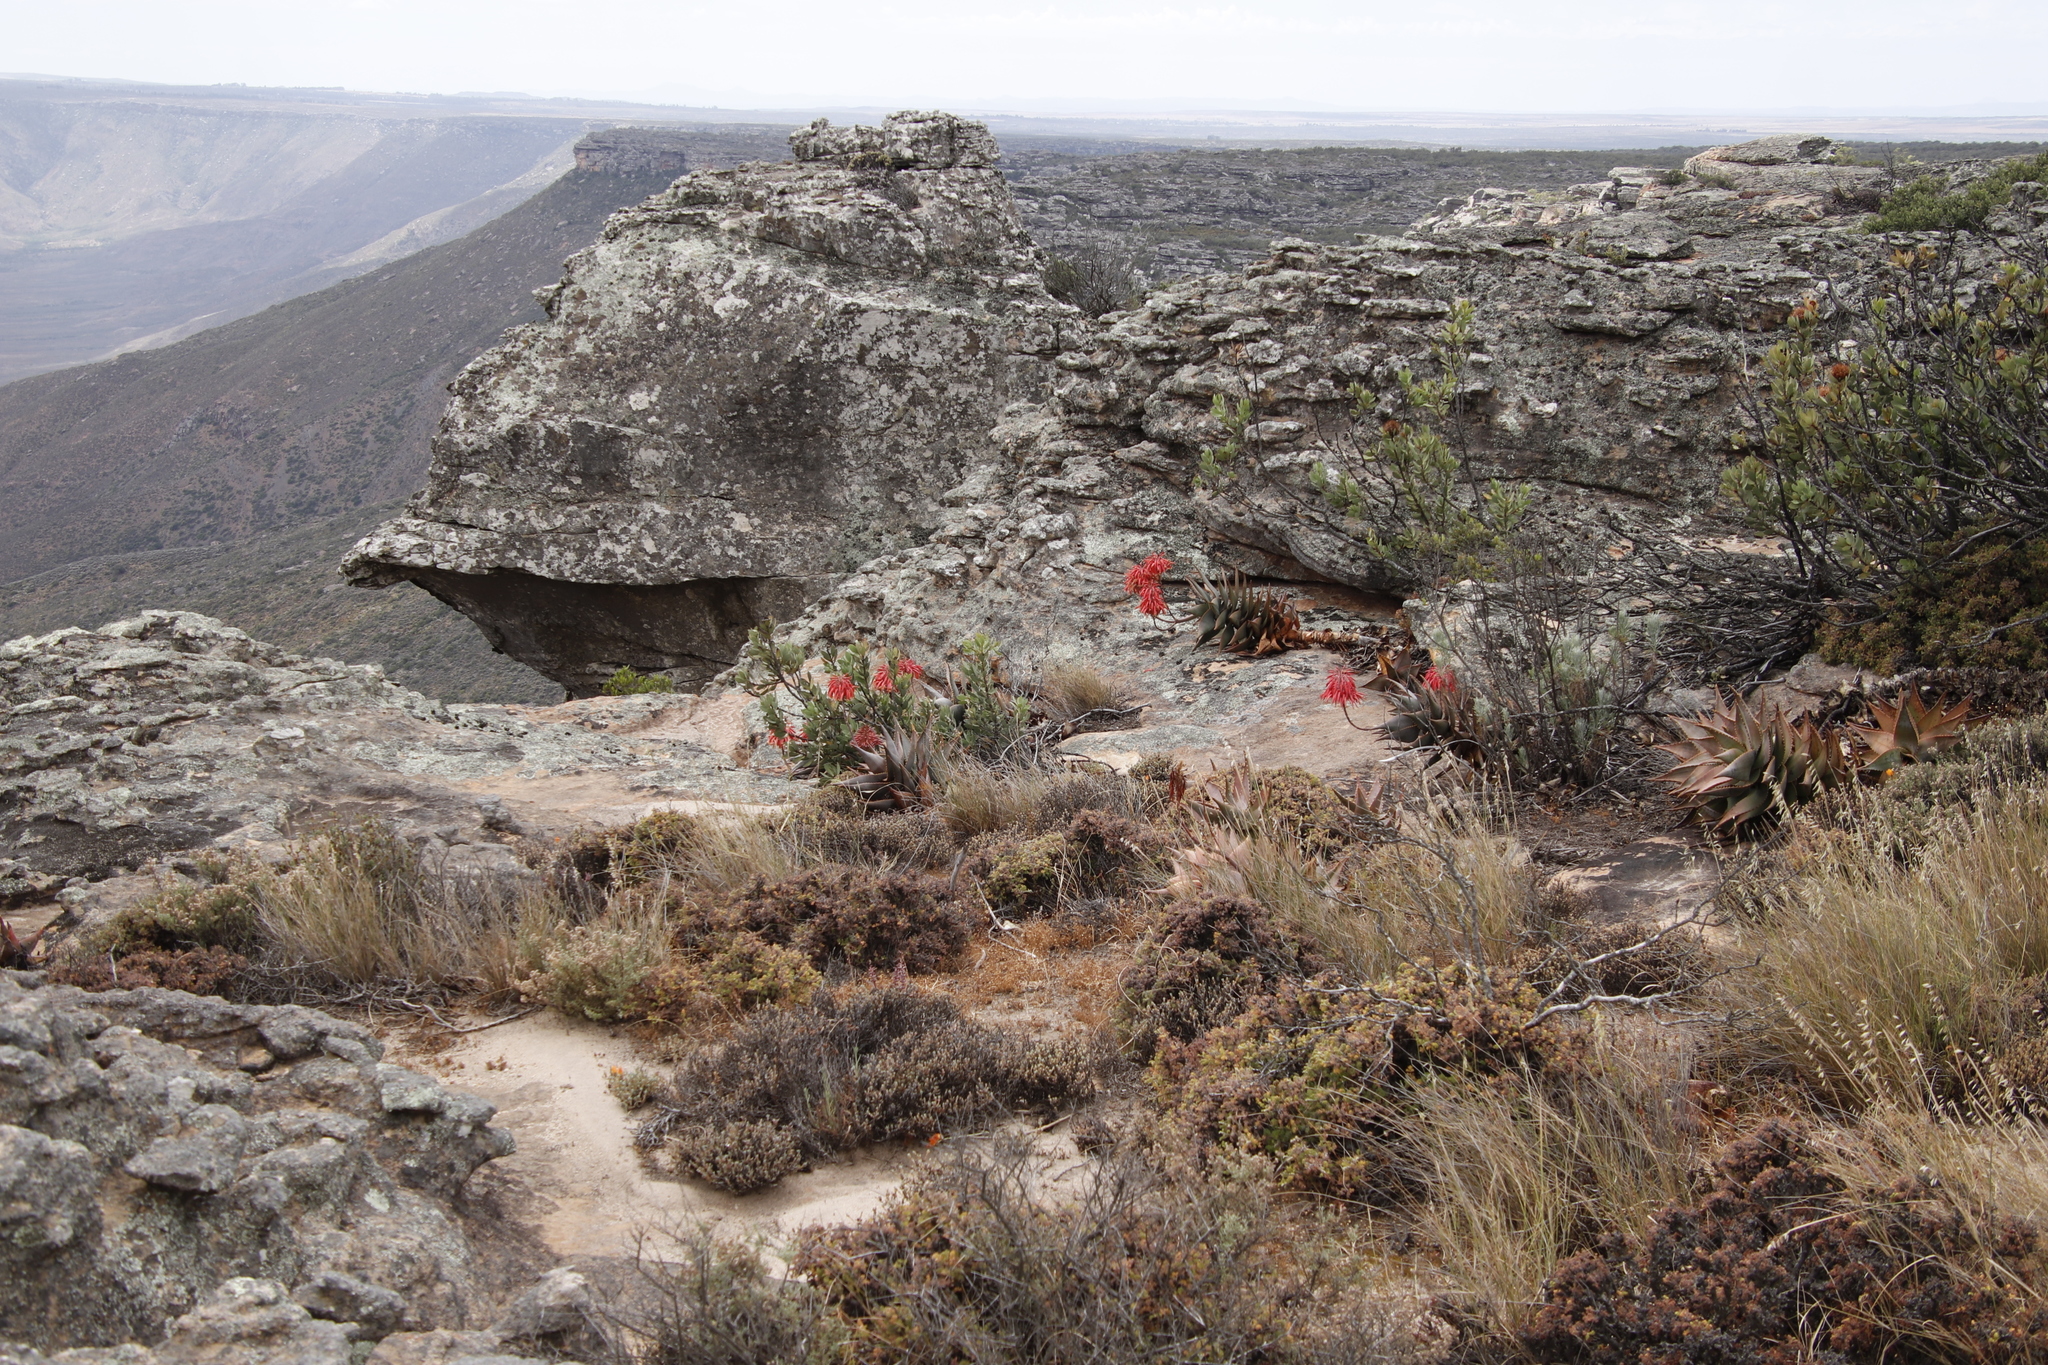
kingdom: Plantae
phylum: Tracheophyta
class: Liliopsida
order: Asparagales
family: Asphodelaceae
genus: Aloe
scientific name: Aloe perfoliata
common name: Mitra aloe
